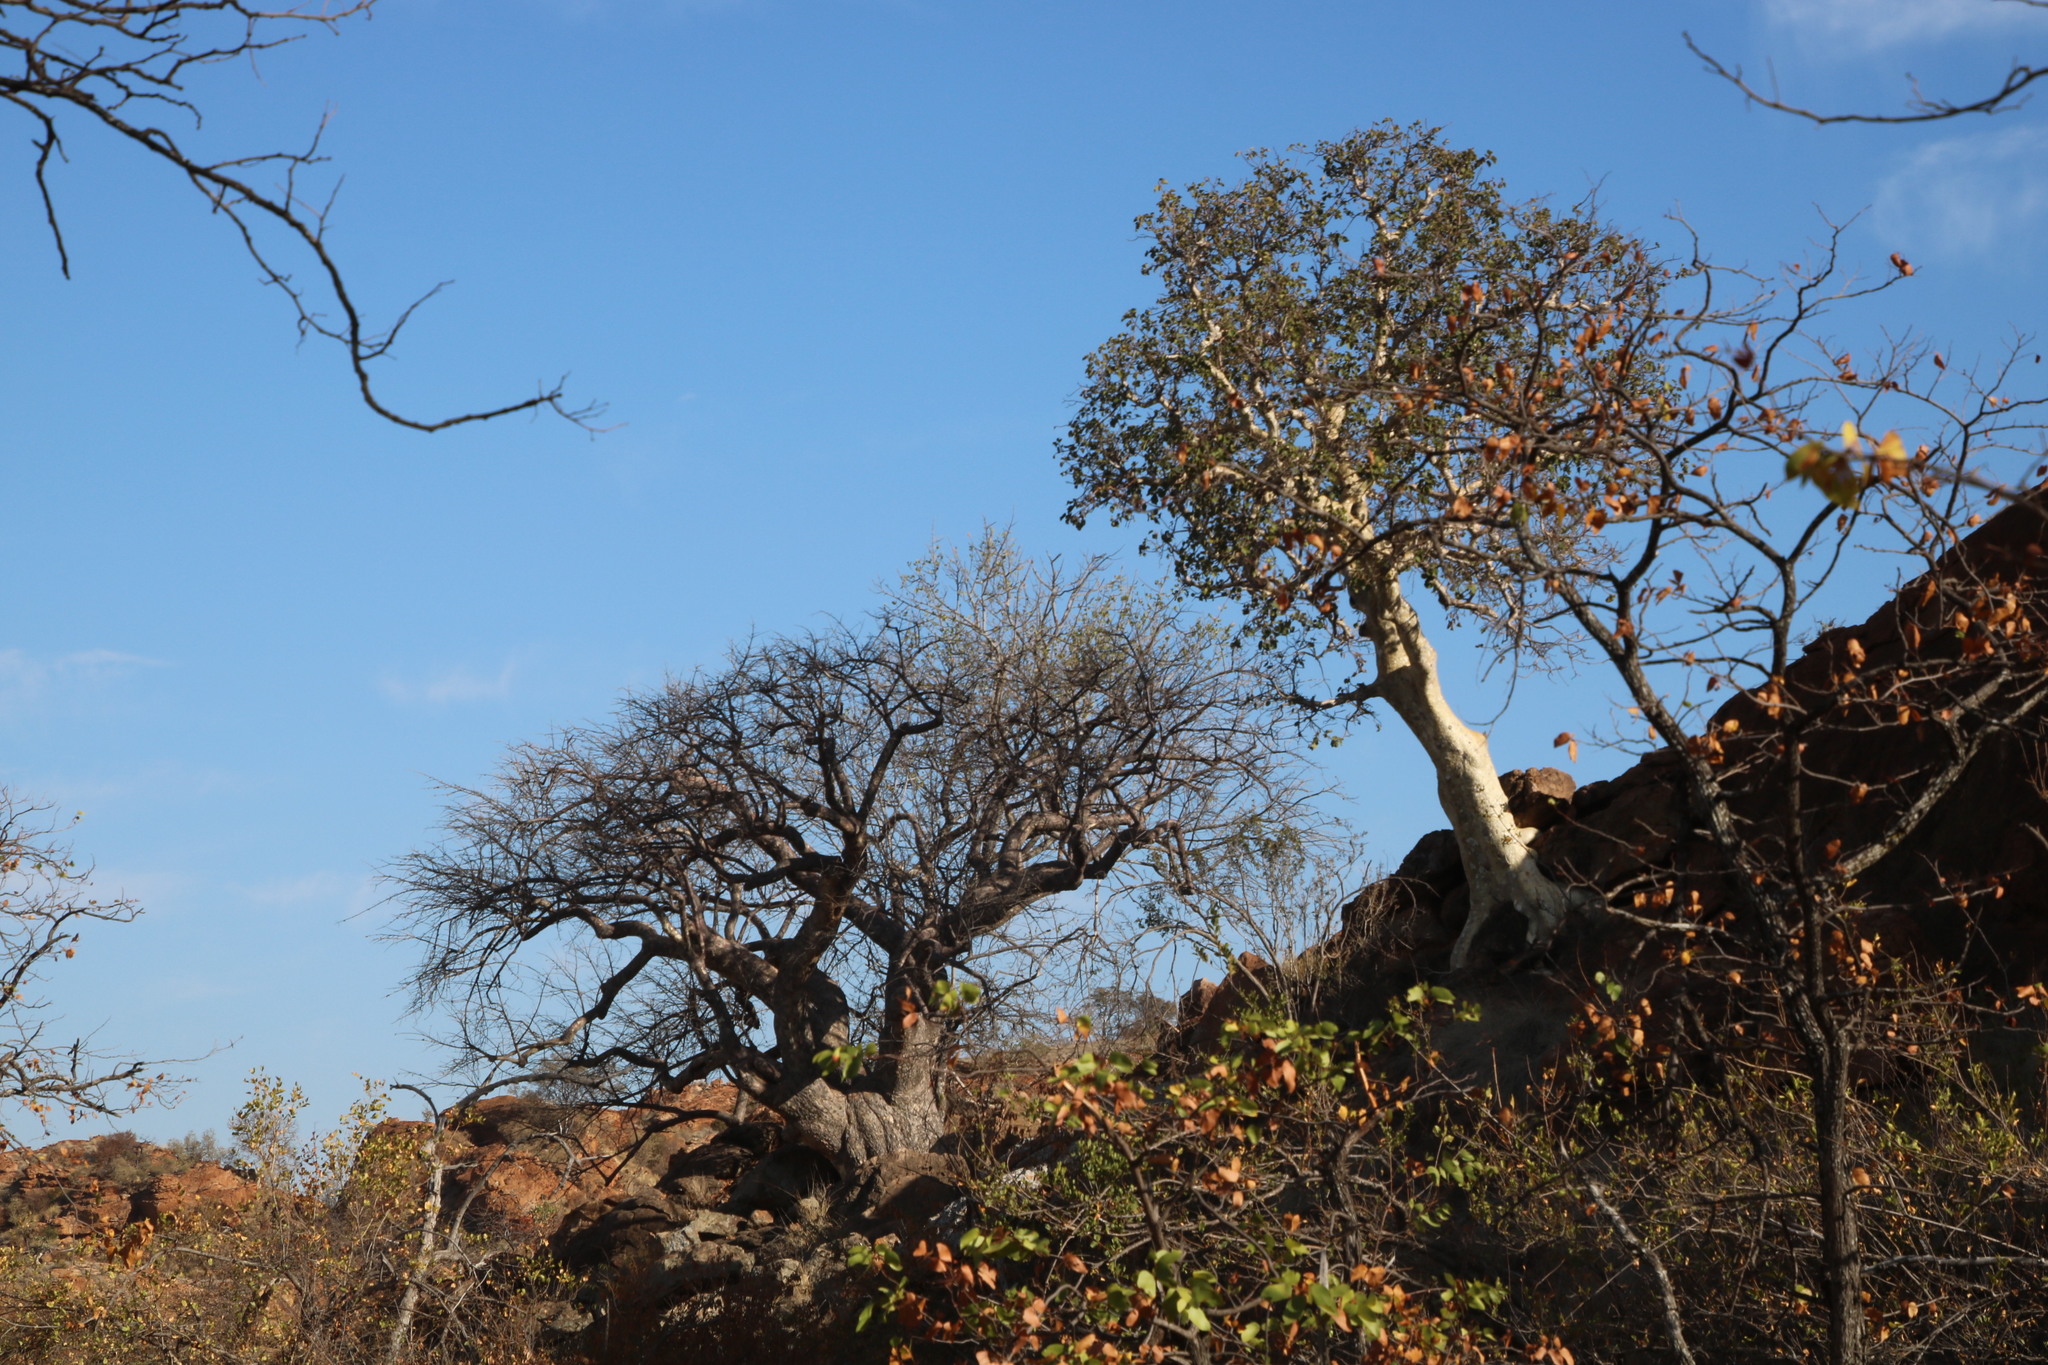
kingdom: Plantae
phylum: Tracheophyta
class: Magnoliopsida
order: Rosales
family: Moraceae
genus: Ficus
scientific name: Ficus tettensis
